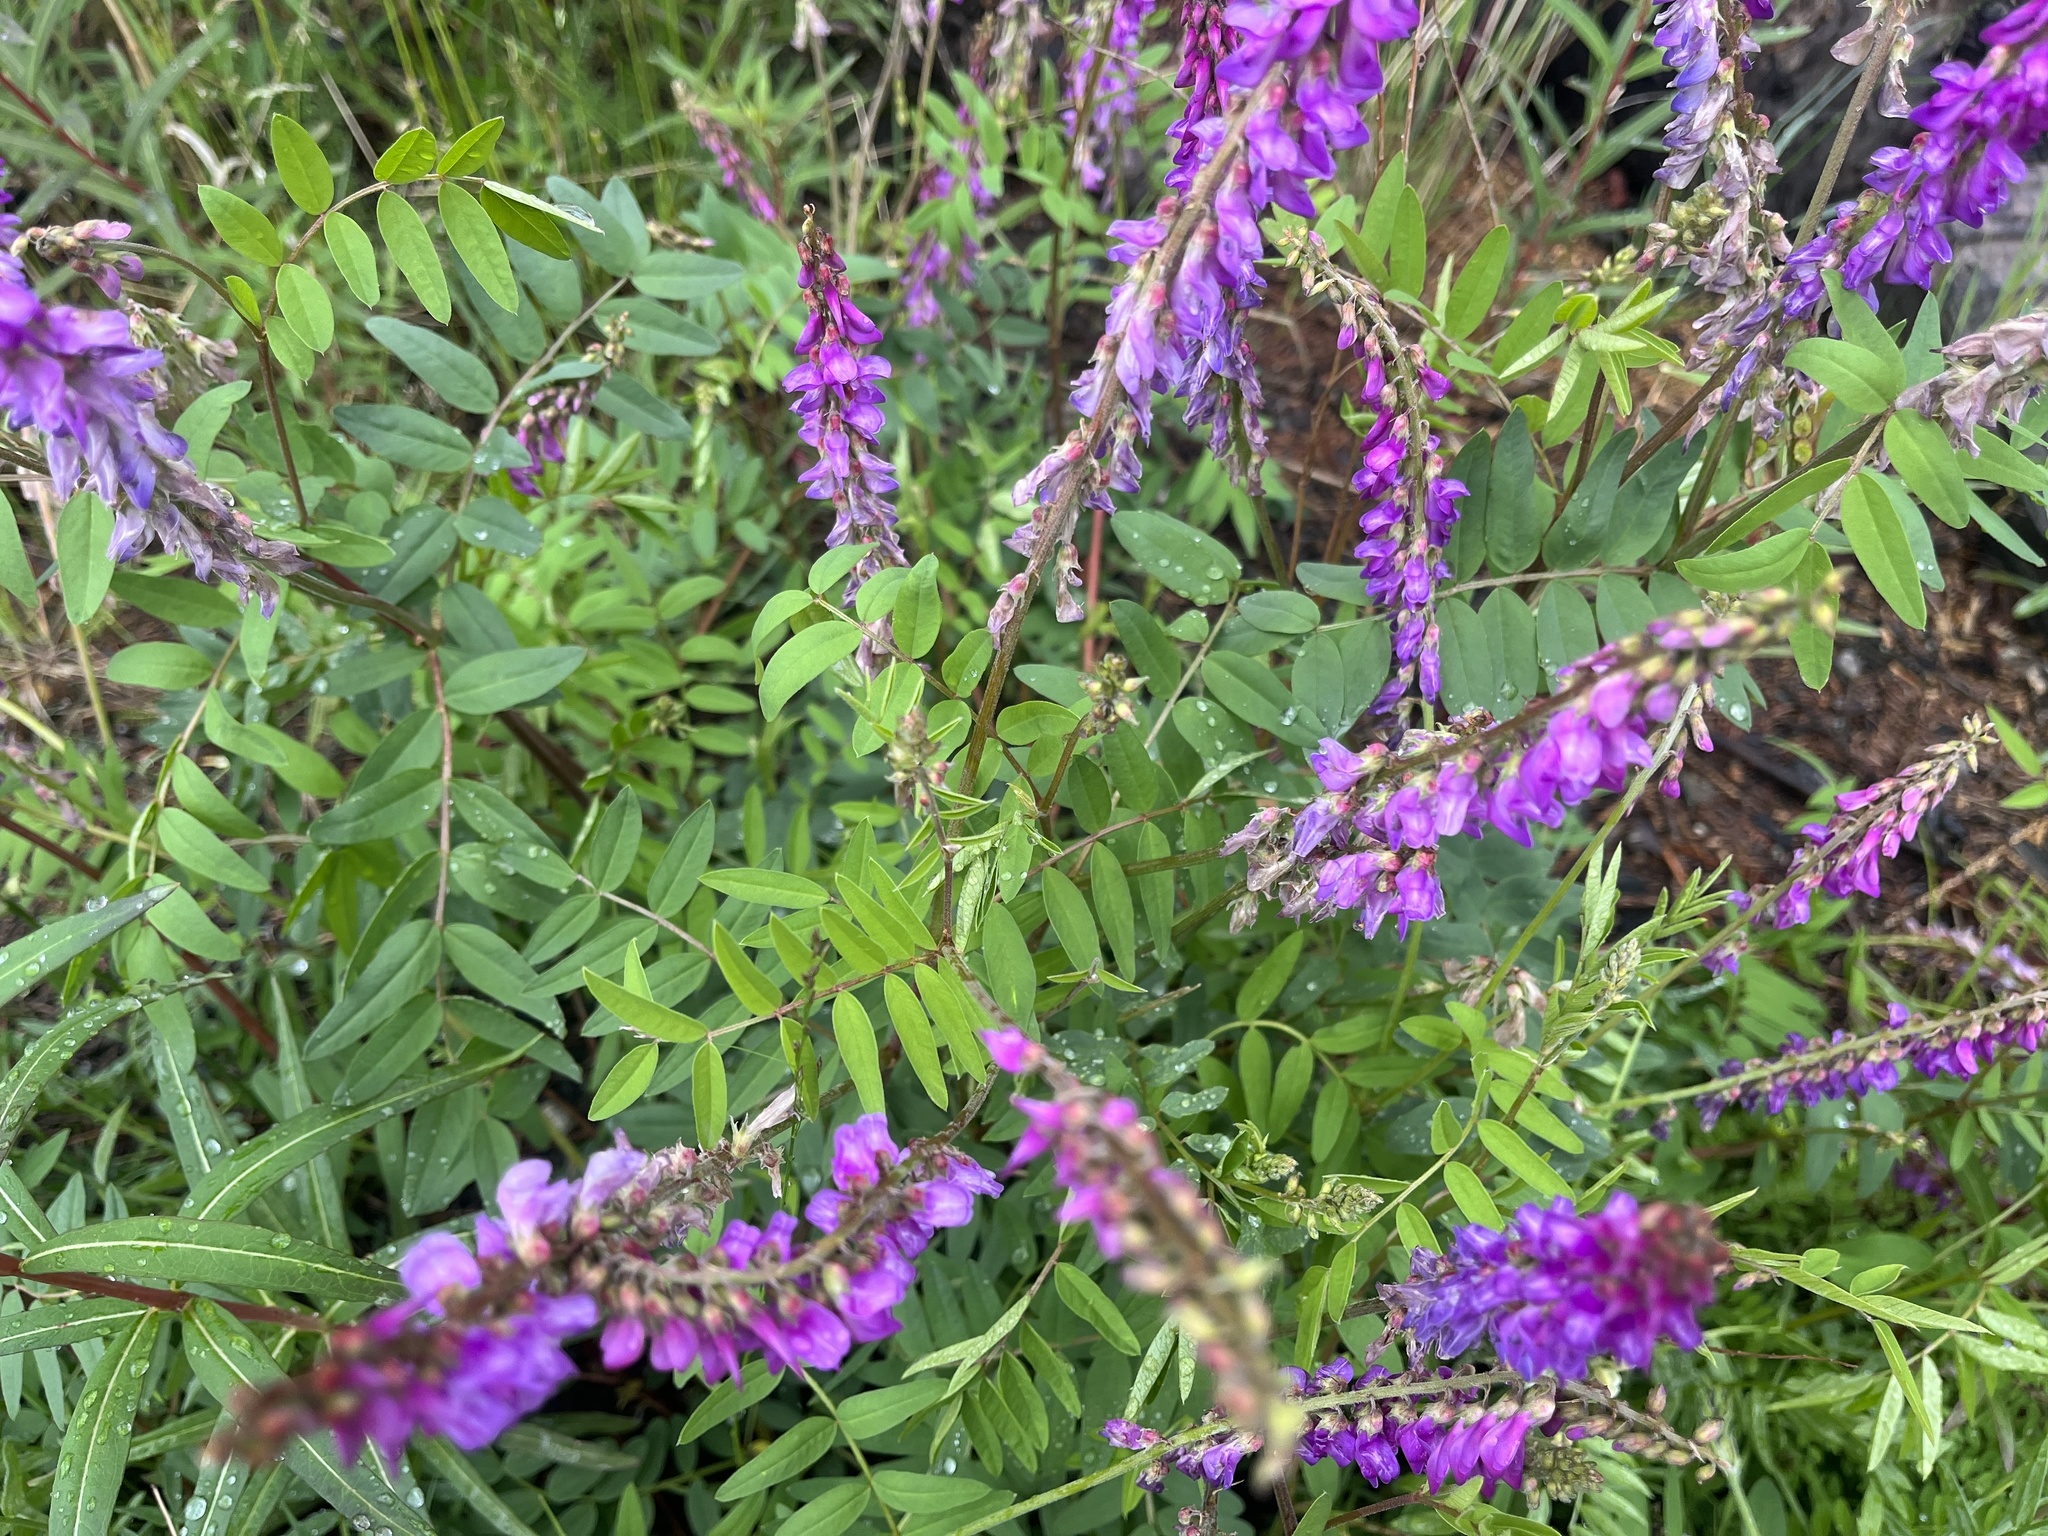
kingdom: Plantae
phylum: Tracheophyta
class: Magnoliopsida
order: Fabales
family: Fabaceae
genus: Hedysarum
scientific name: Hedysarum alpinum
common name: Alpine sweet-vetch
